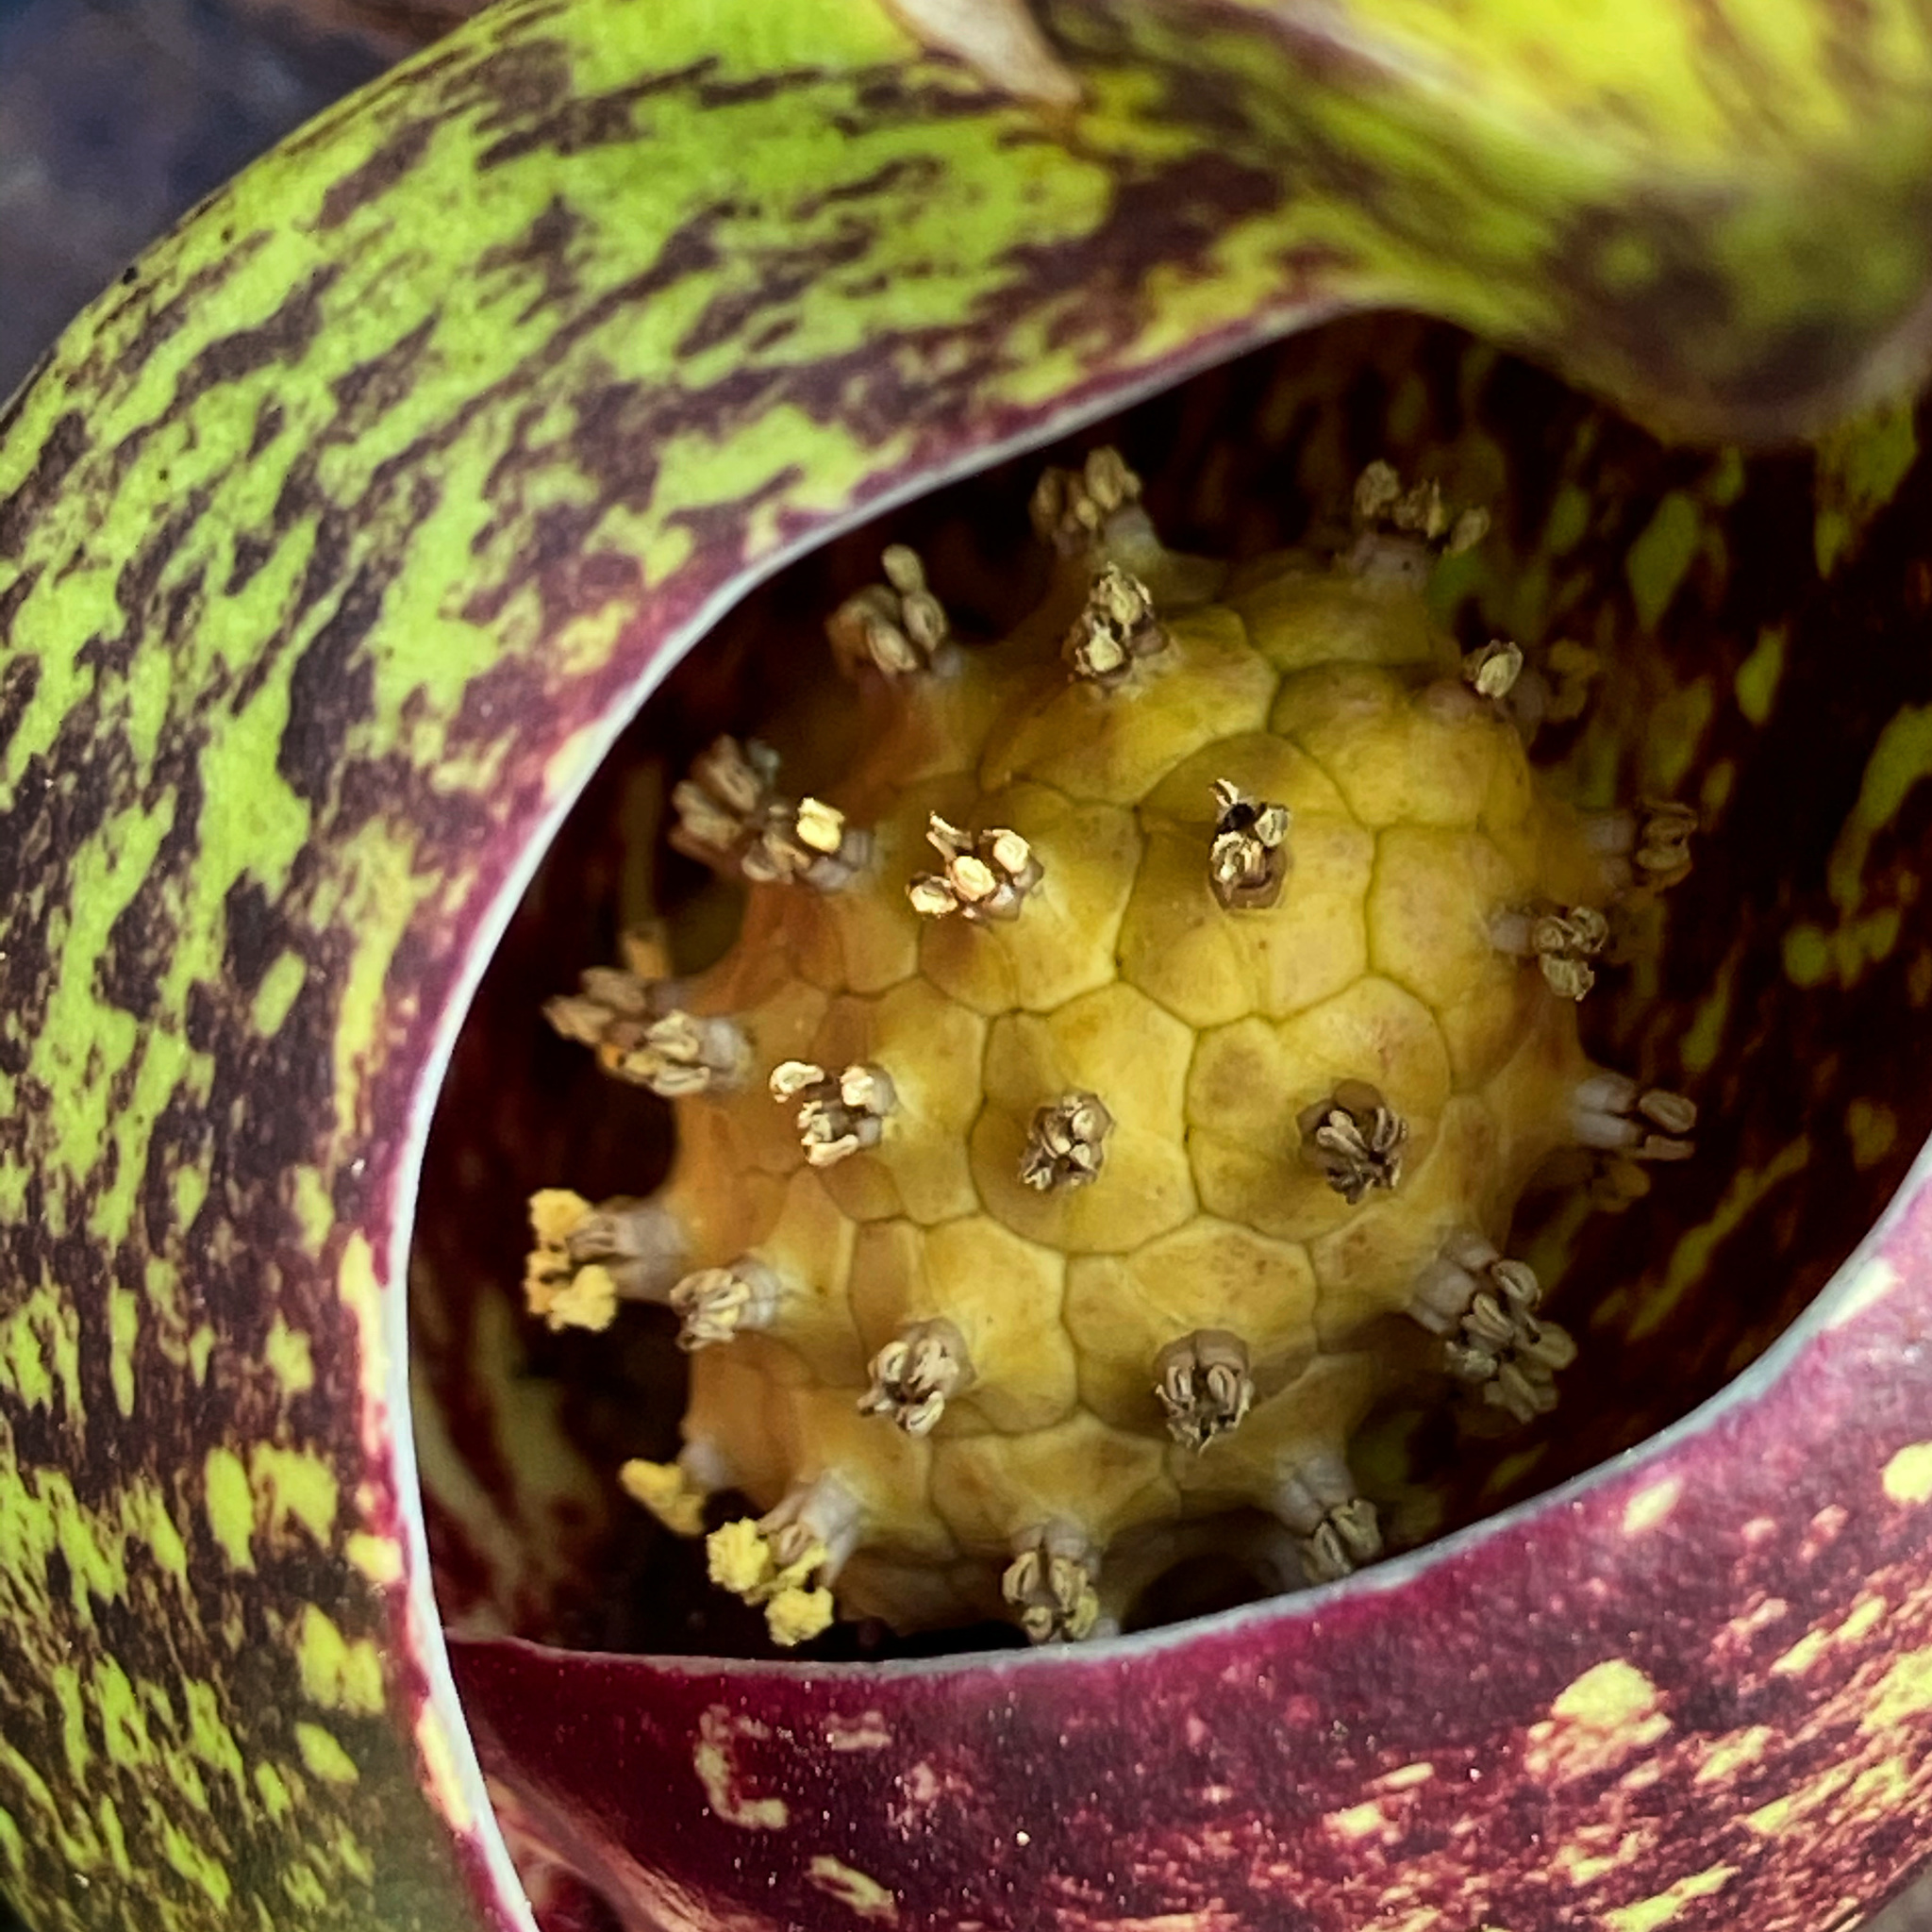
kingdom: Plantae
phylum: Tracheophyta
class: Liliopsida
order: Alismatales
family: Araceae
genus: Symplocarpus
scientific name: Symplocarpus foetidus
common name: Eastern skunk cabbage
